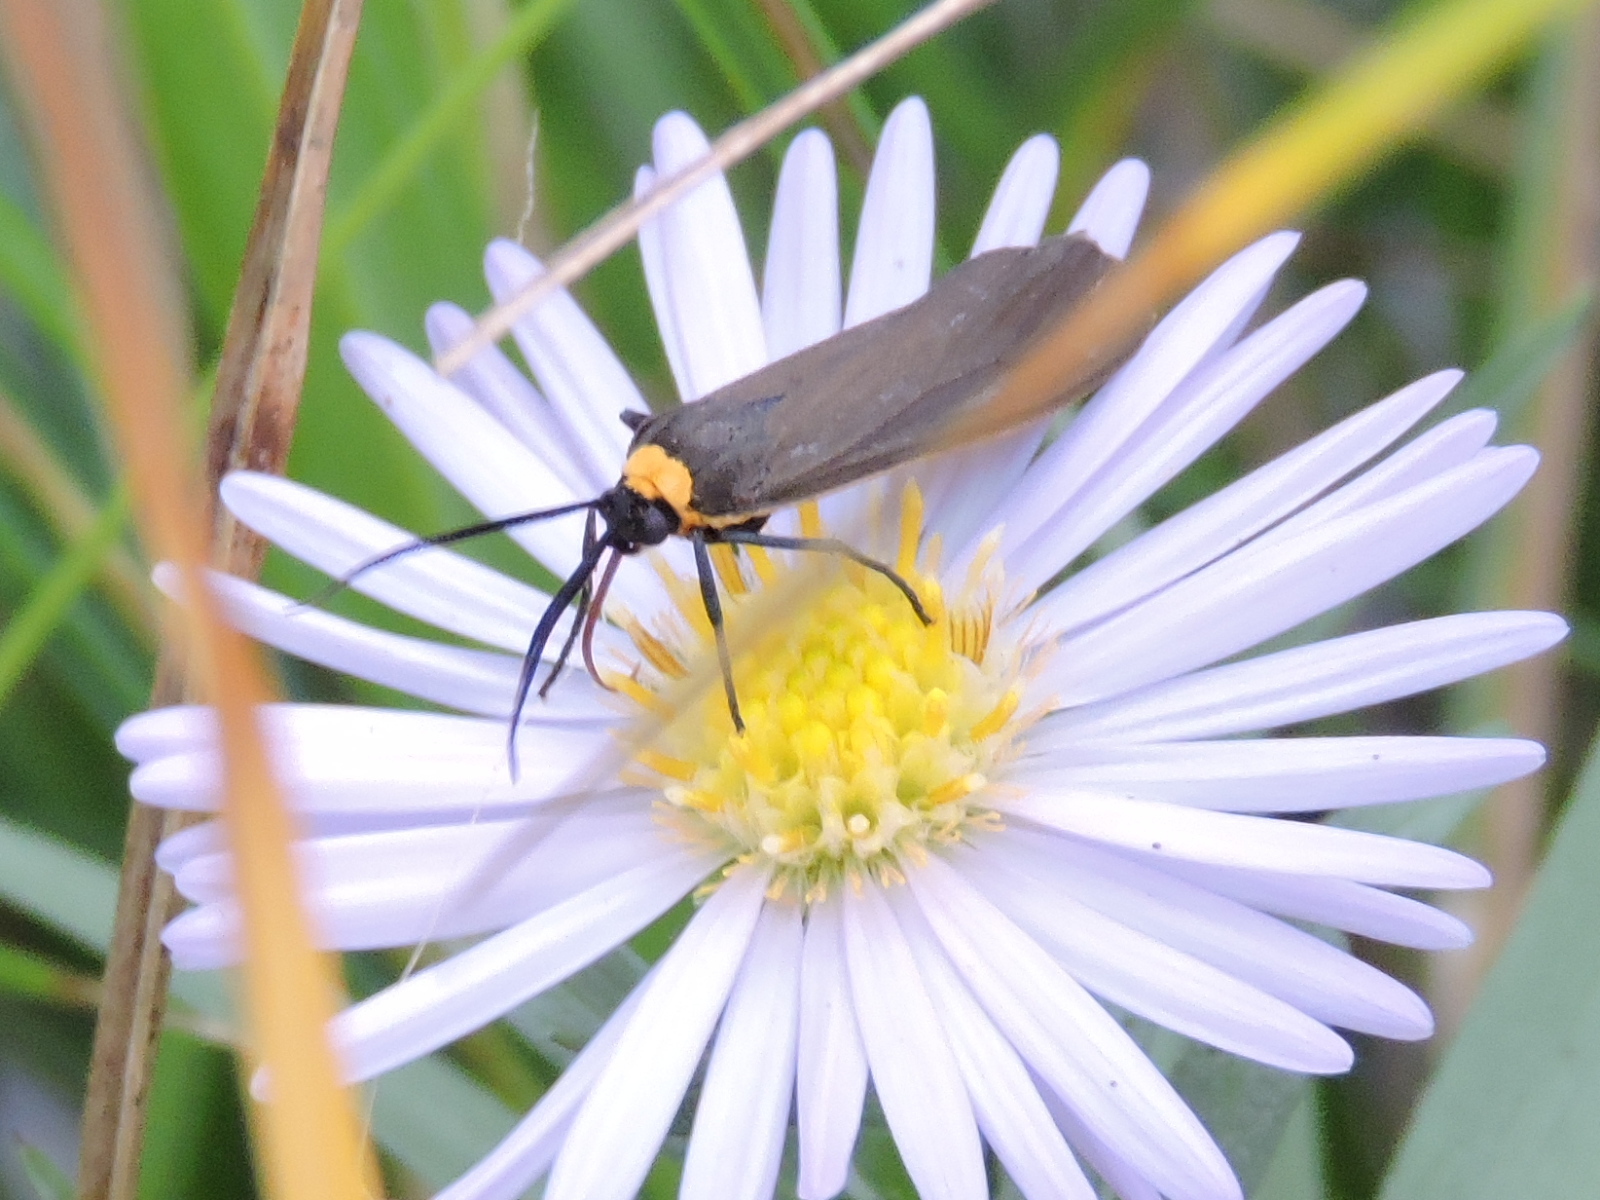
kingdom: Animalia
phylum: Arthropoda
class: Insecta
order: Lepidoptera
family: Erebidae
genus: Cisseps
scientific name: Cisseps fulvicollis
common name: Yellow-collared scape moth
